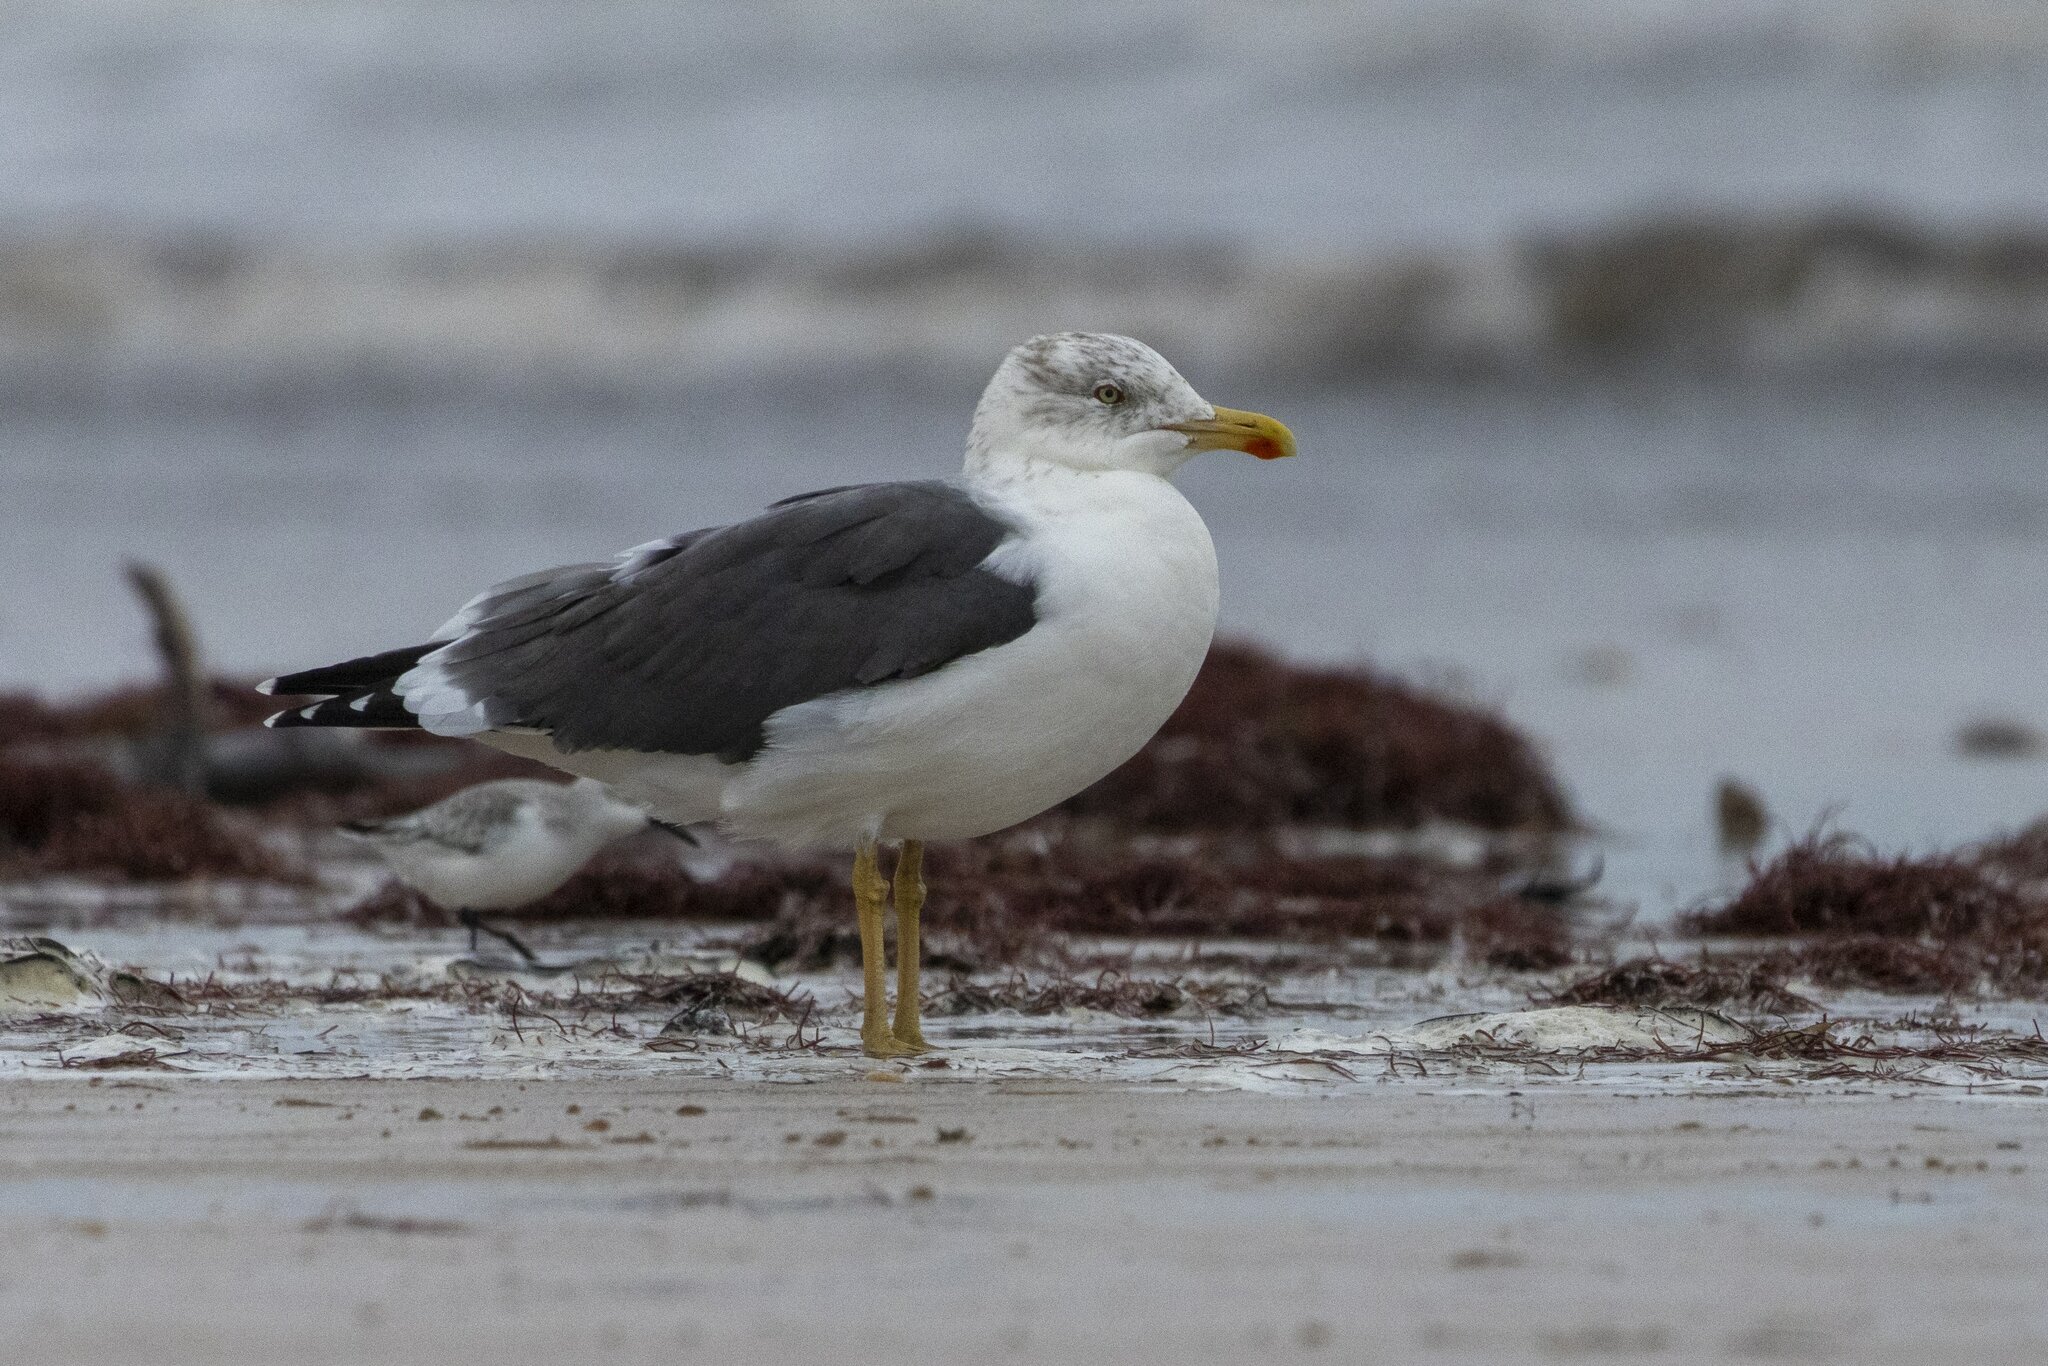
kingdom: Animalia
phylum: Chordata
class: Aves
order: Charadriiformes
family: Laridae
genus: Larus
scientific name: Larus fuscus
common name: Lesser black-backed gull
